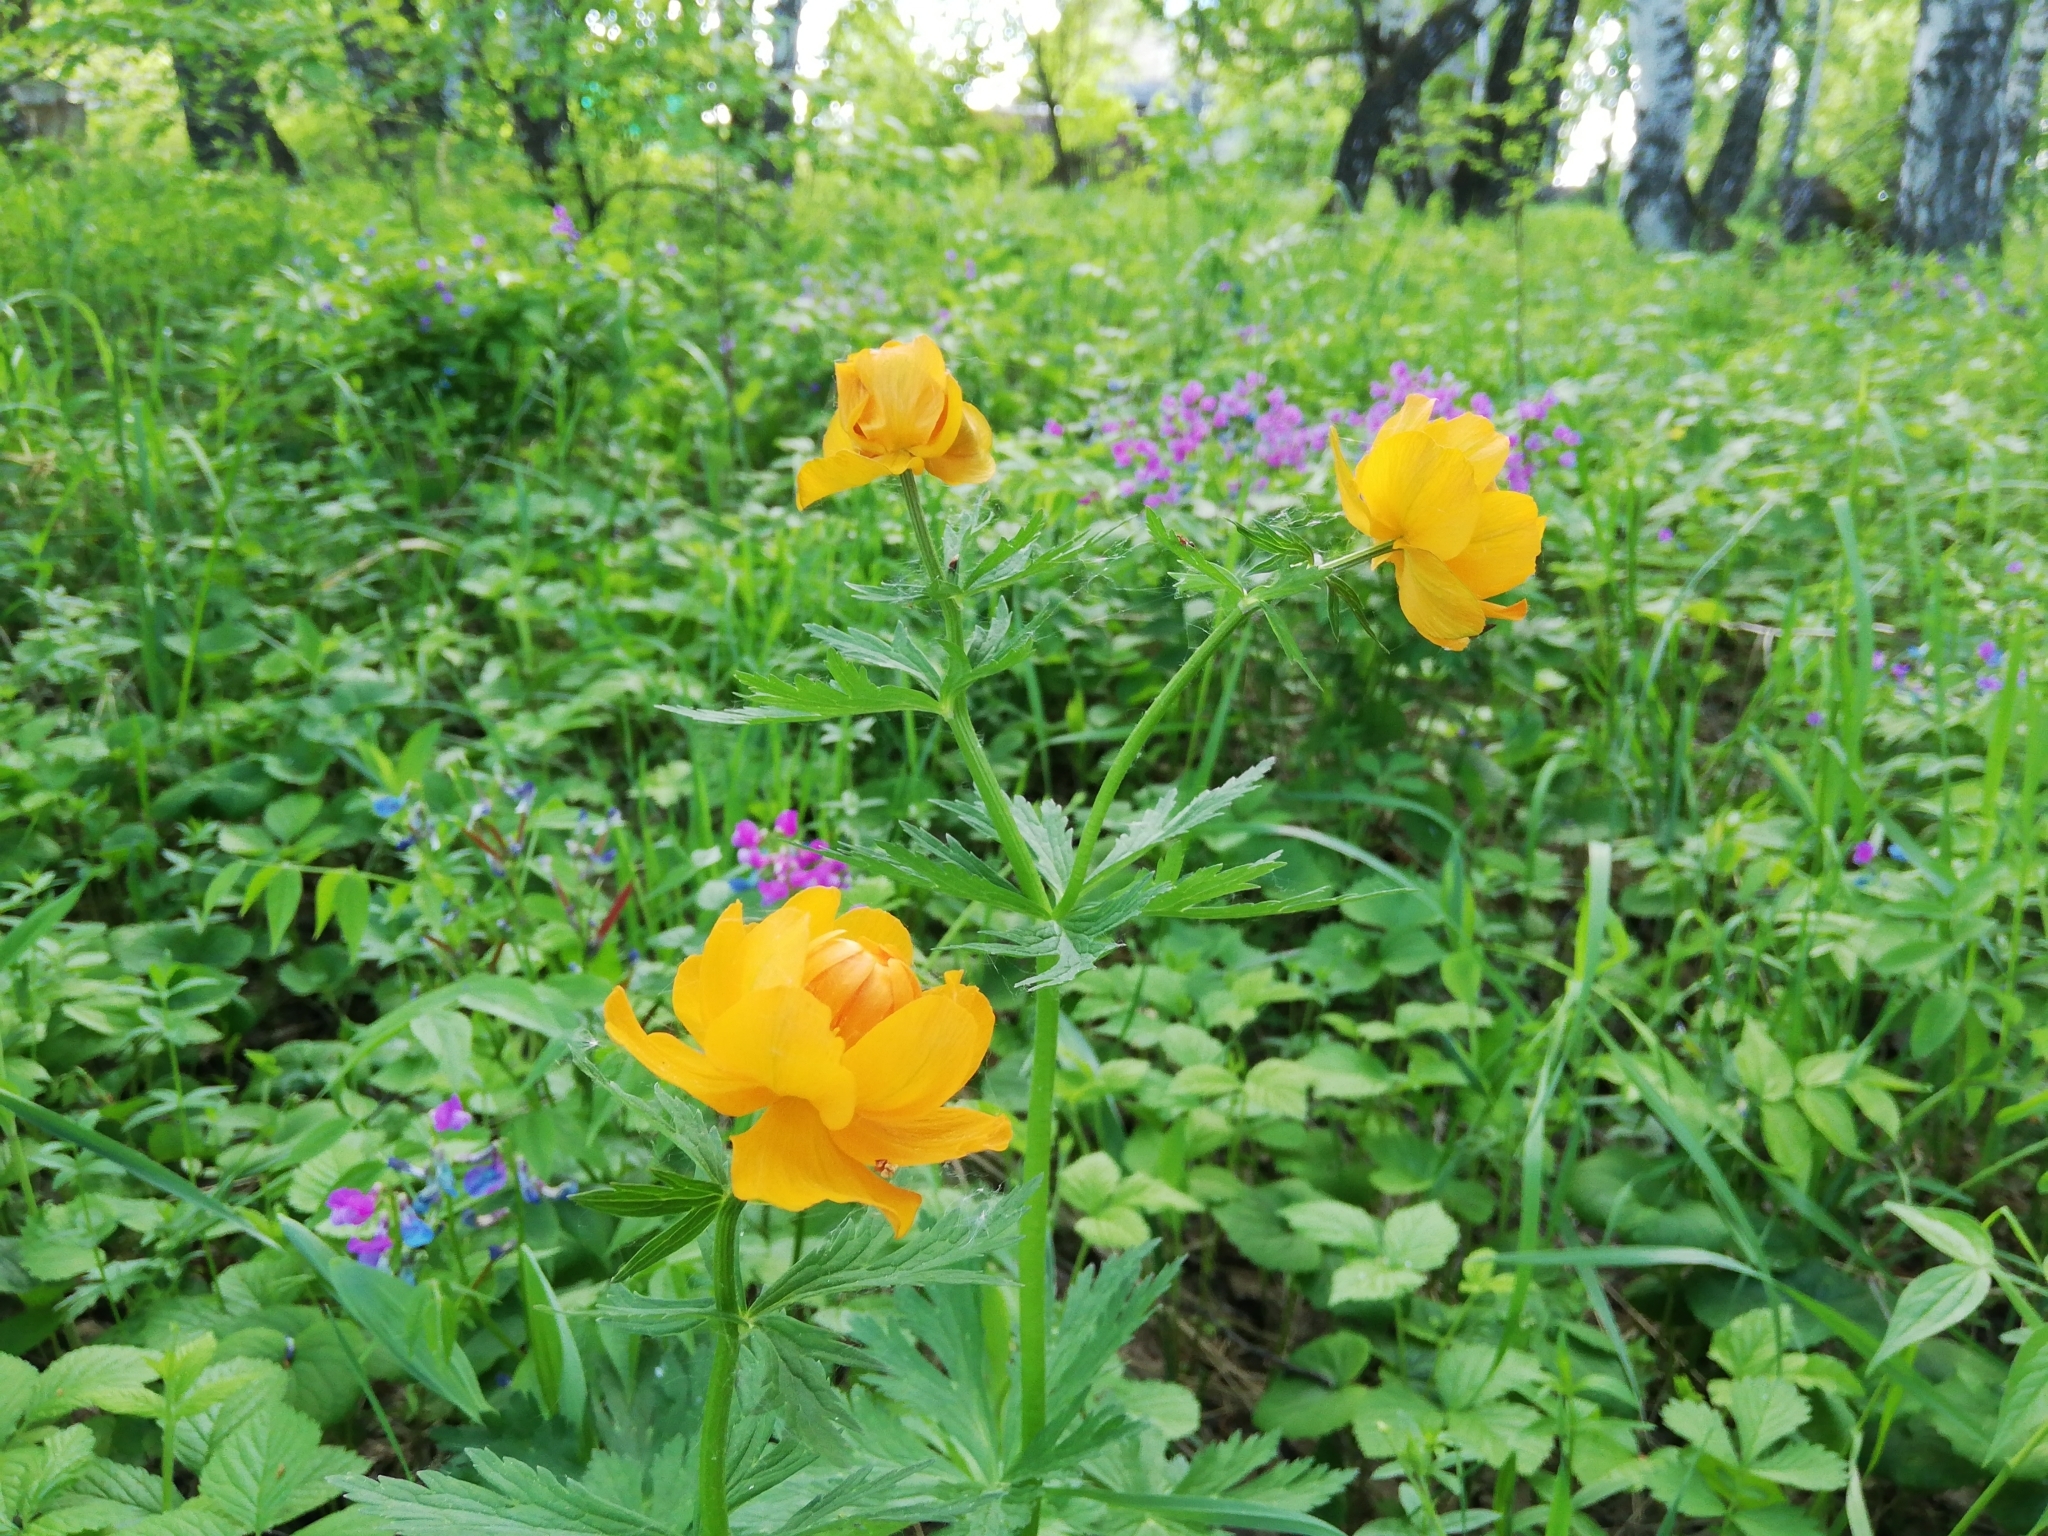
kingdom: Plantae
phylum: Tracheophyta
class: Magnoliopsida
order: Ranunculales
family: Ranunculaceae
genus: Trollius
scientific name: Trollius asiaticus
